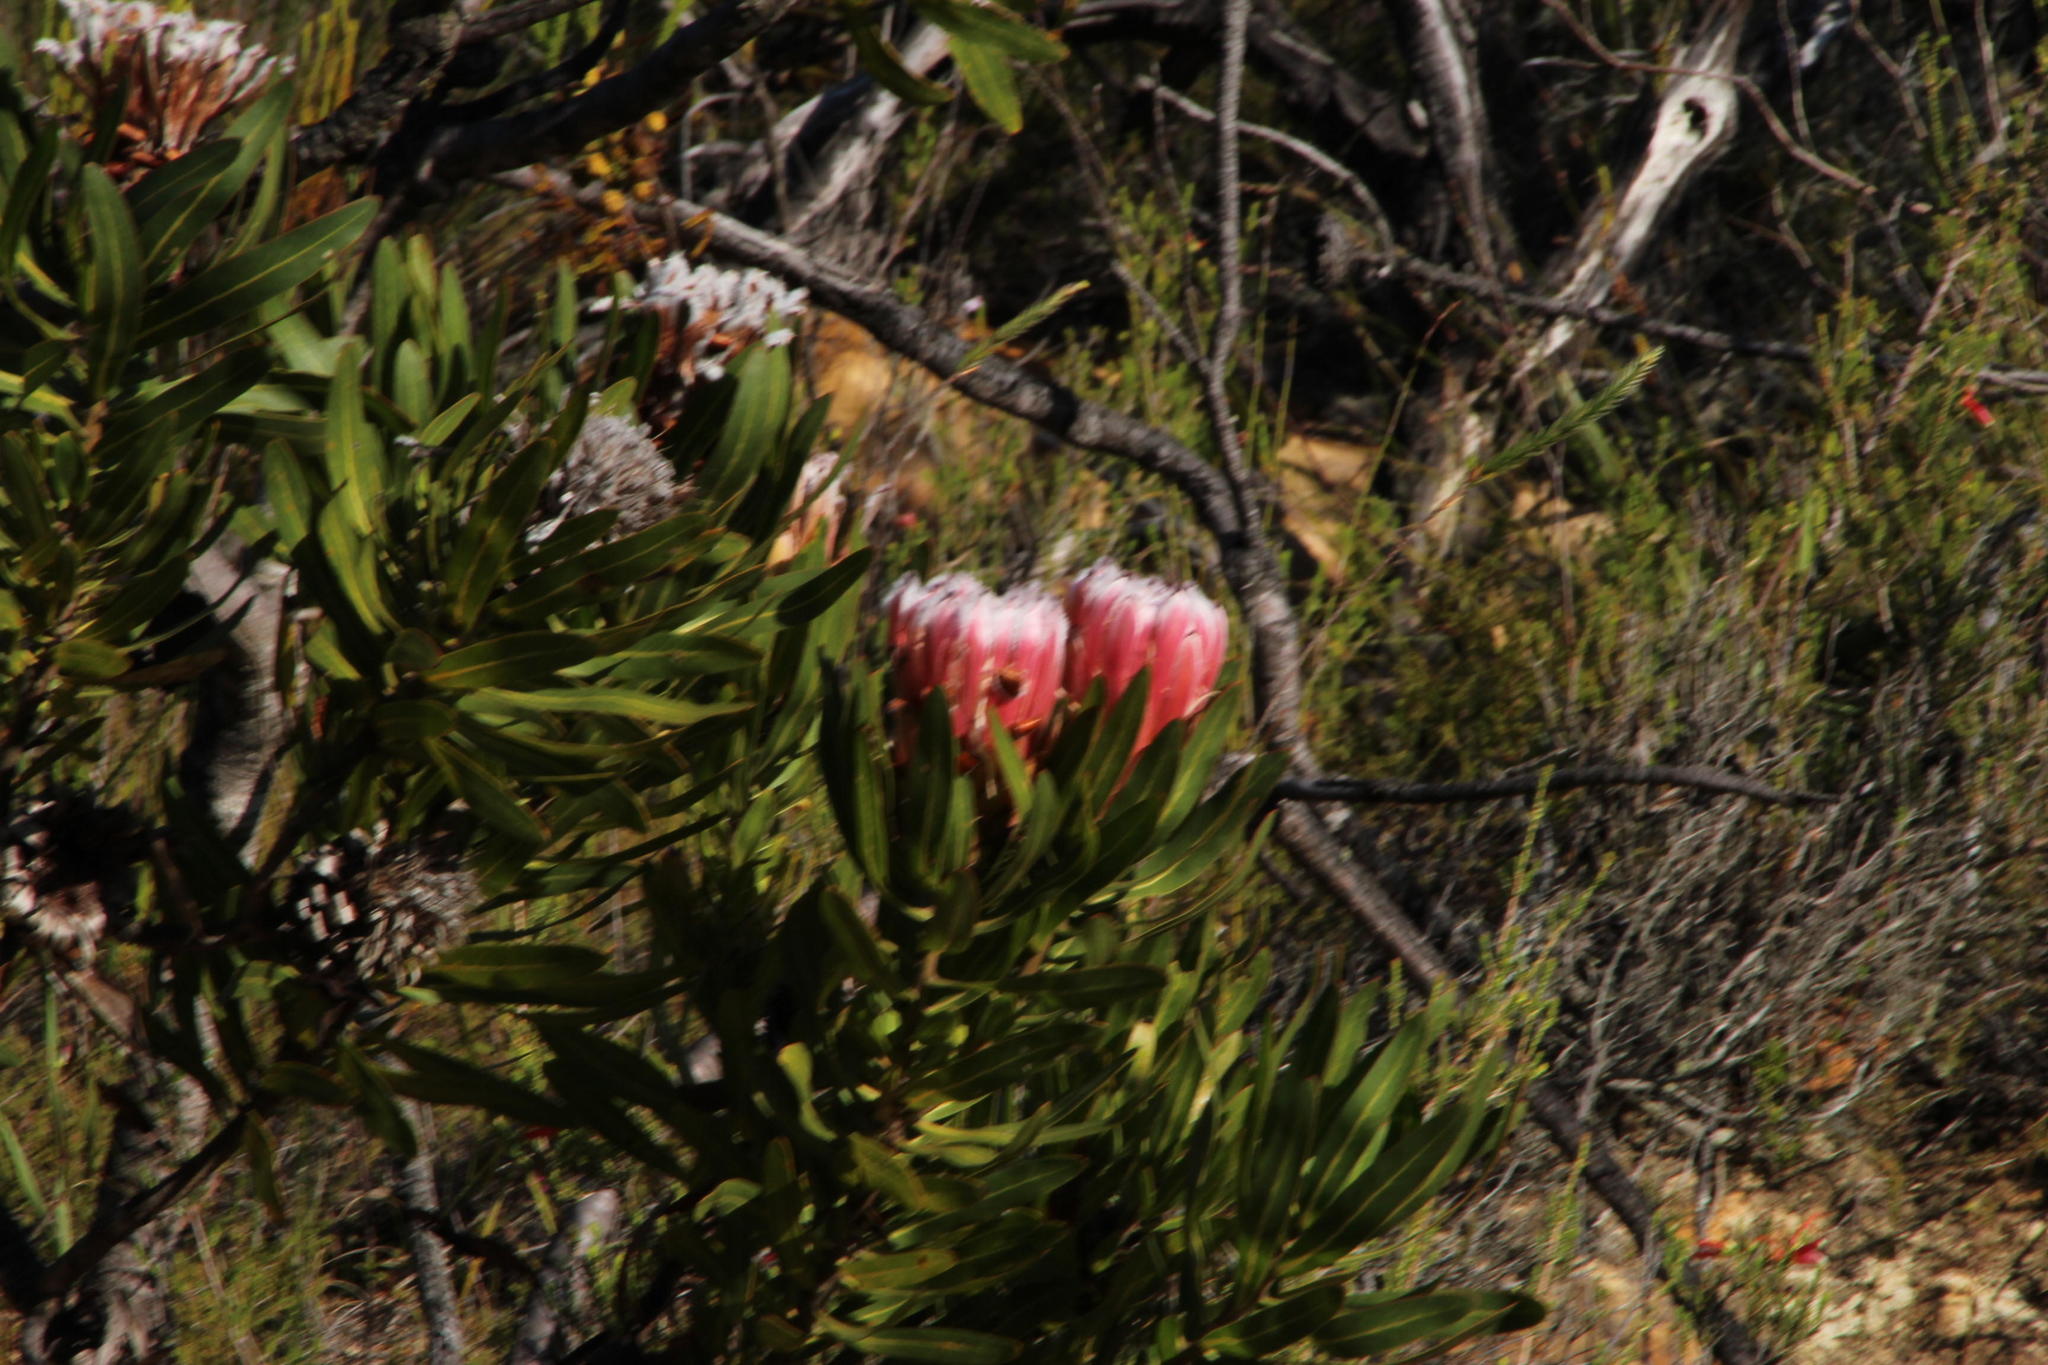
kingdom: Plantae
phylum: Tracheophyta
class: Magnoliopsida
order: Proteales
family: Proteaceae
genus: Protea
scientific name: Protea neriifolia
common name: Blue sugarbush
